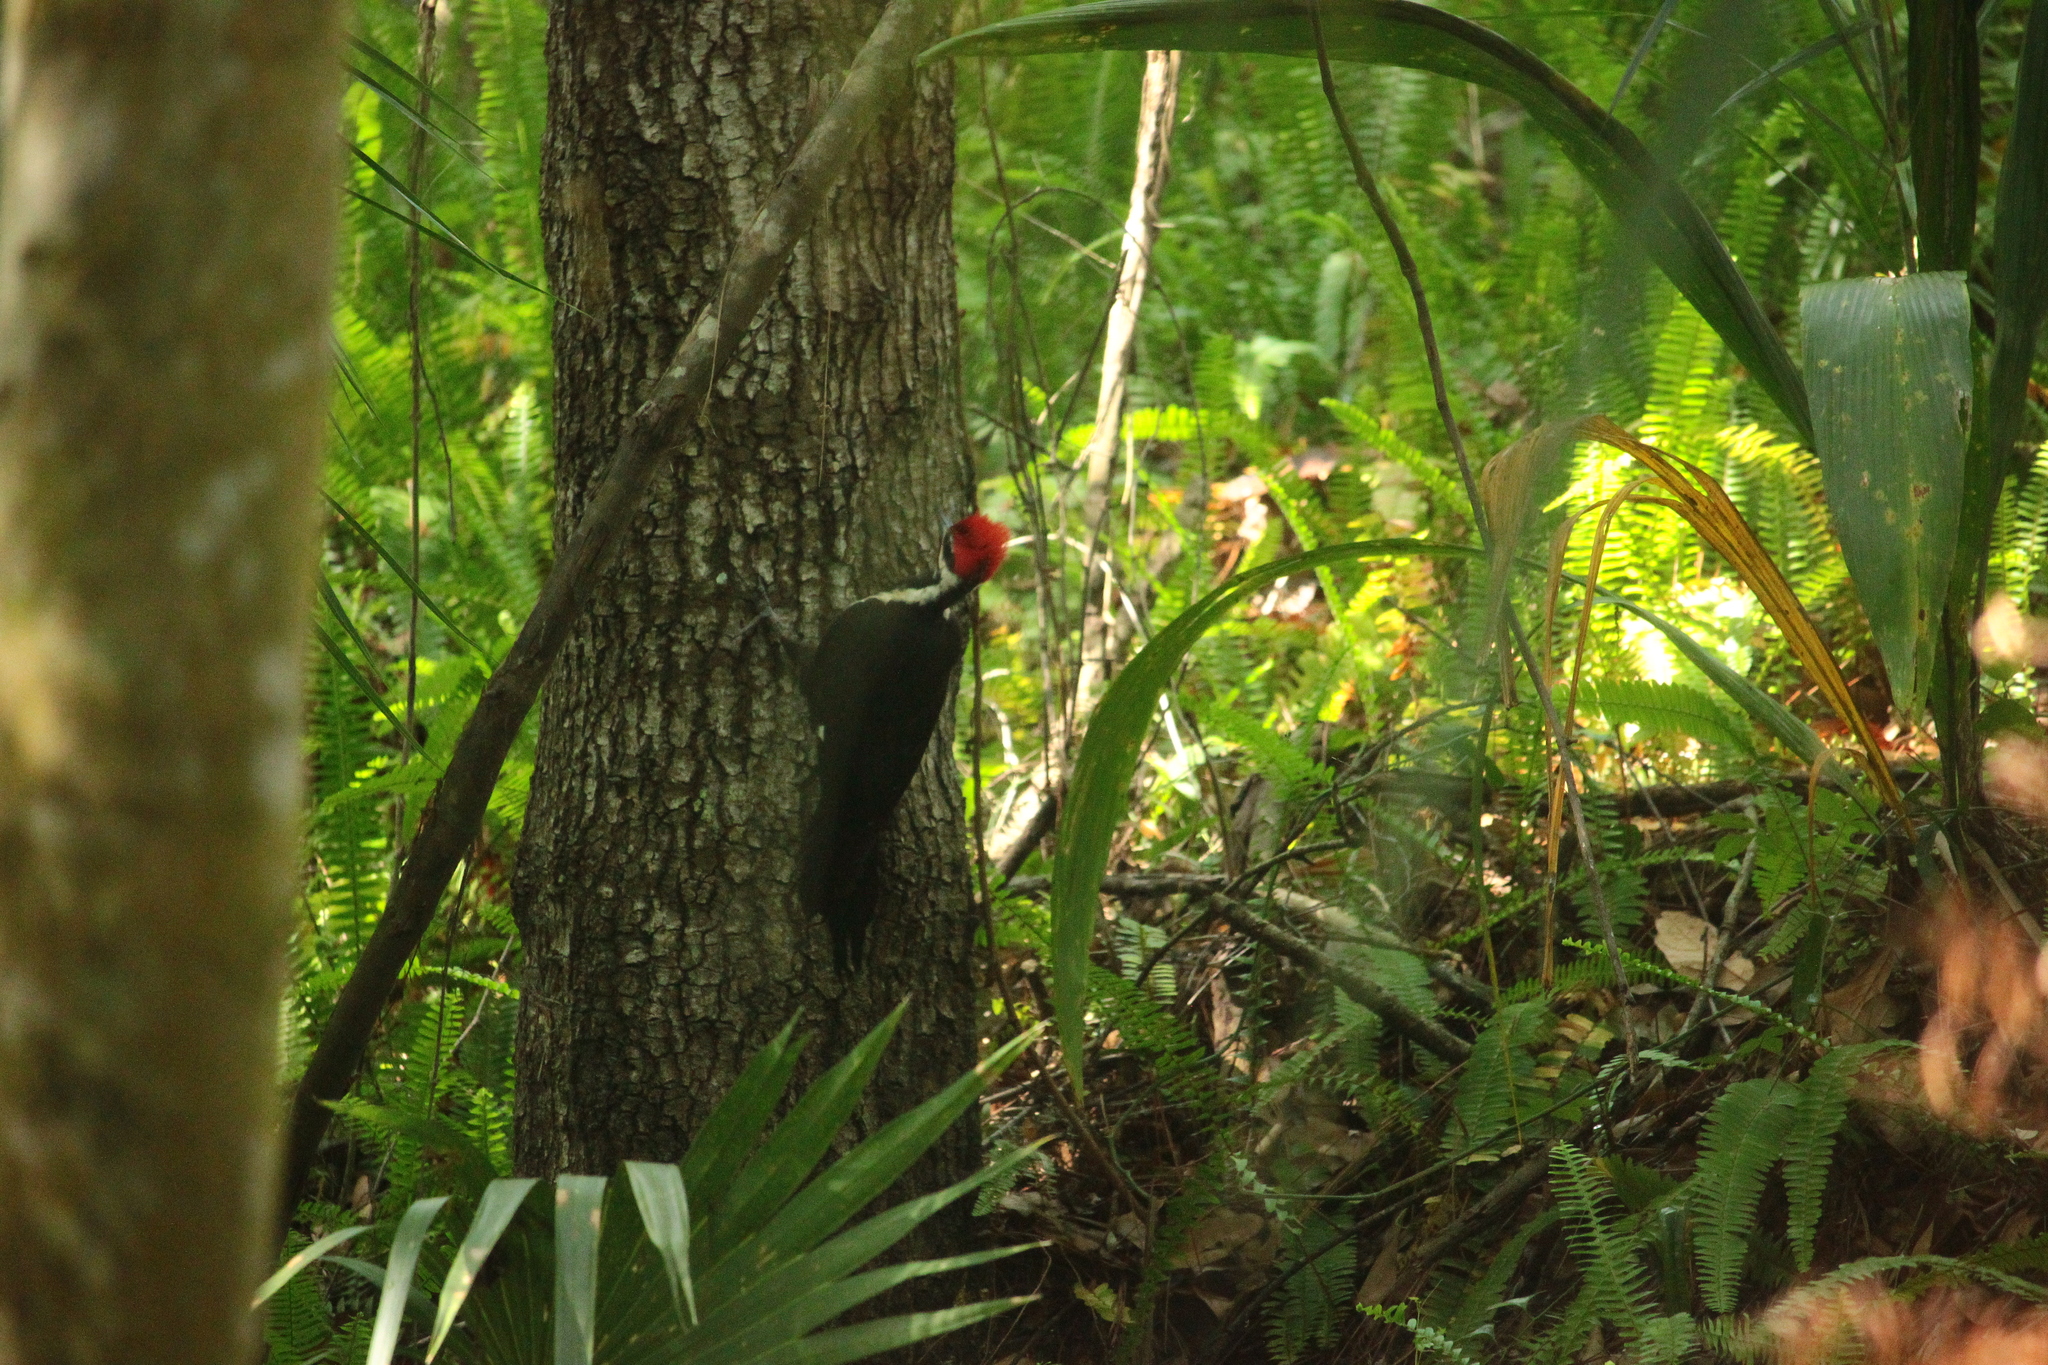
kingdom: Animalia
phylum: Chordata
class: Aves
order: Piciformes
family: Picidae
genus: Dryocopus
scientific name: Dryocopus pileatus
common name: Pileated woodpecker
